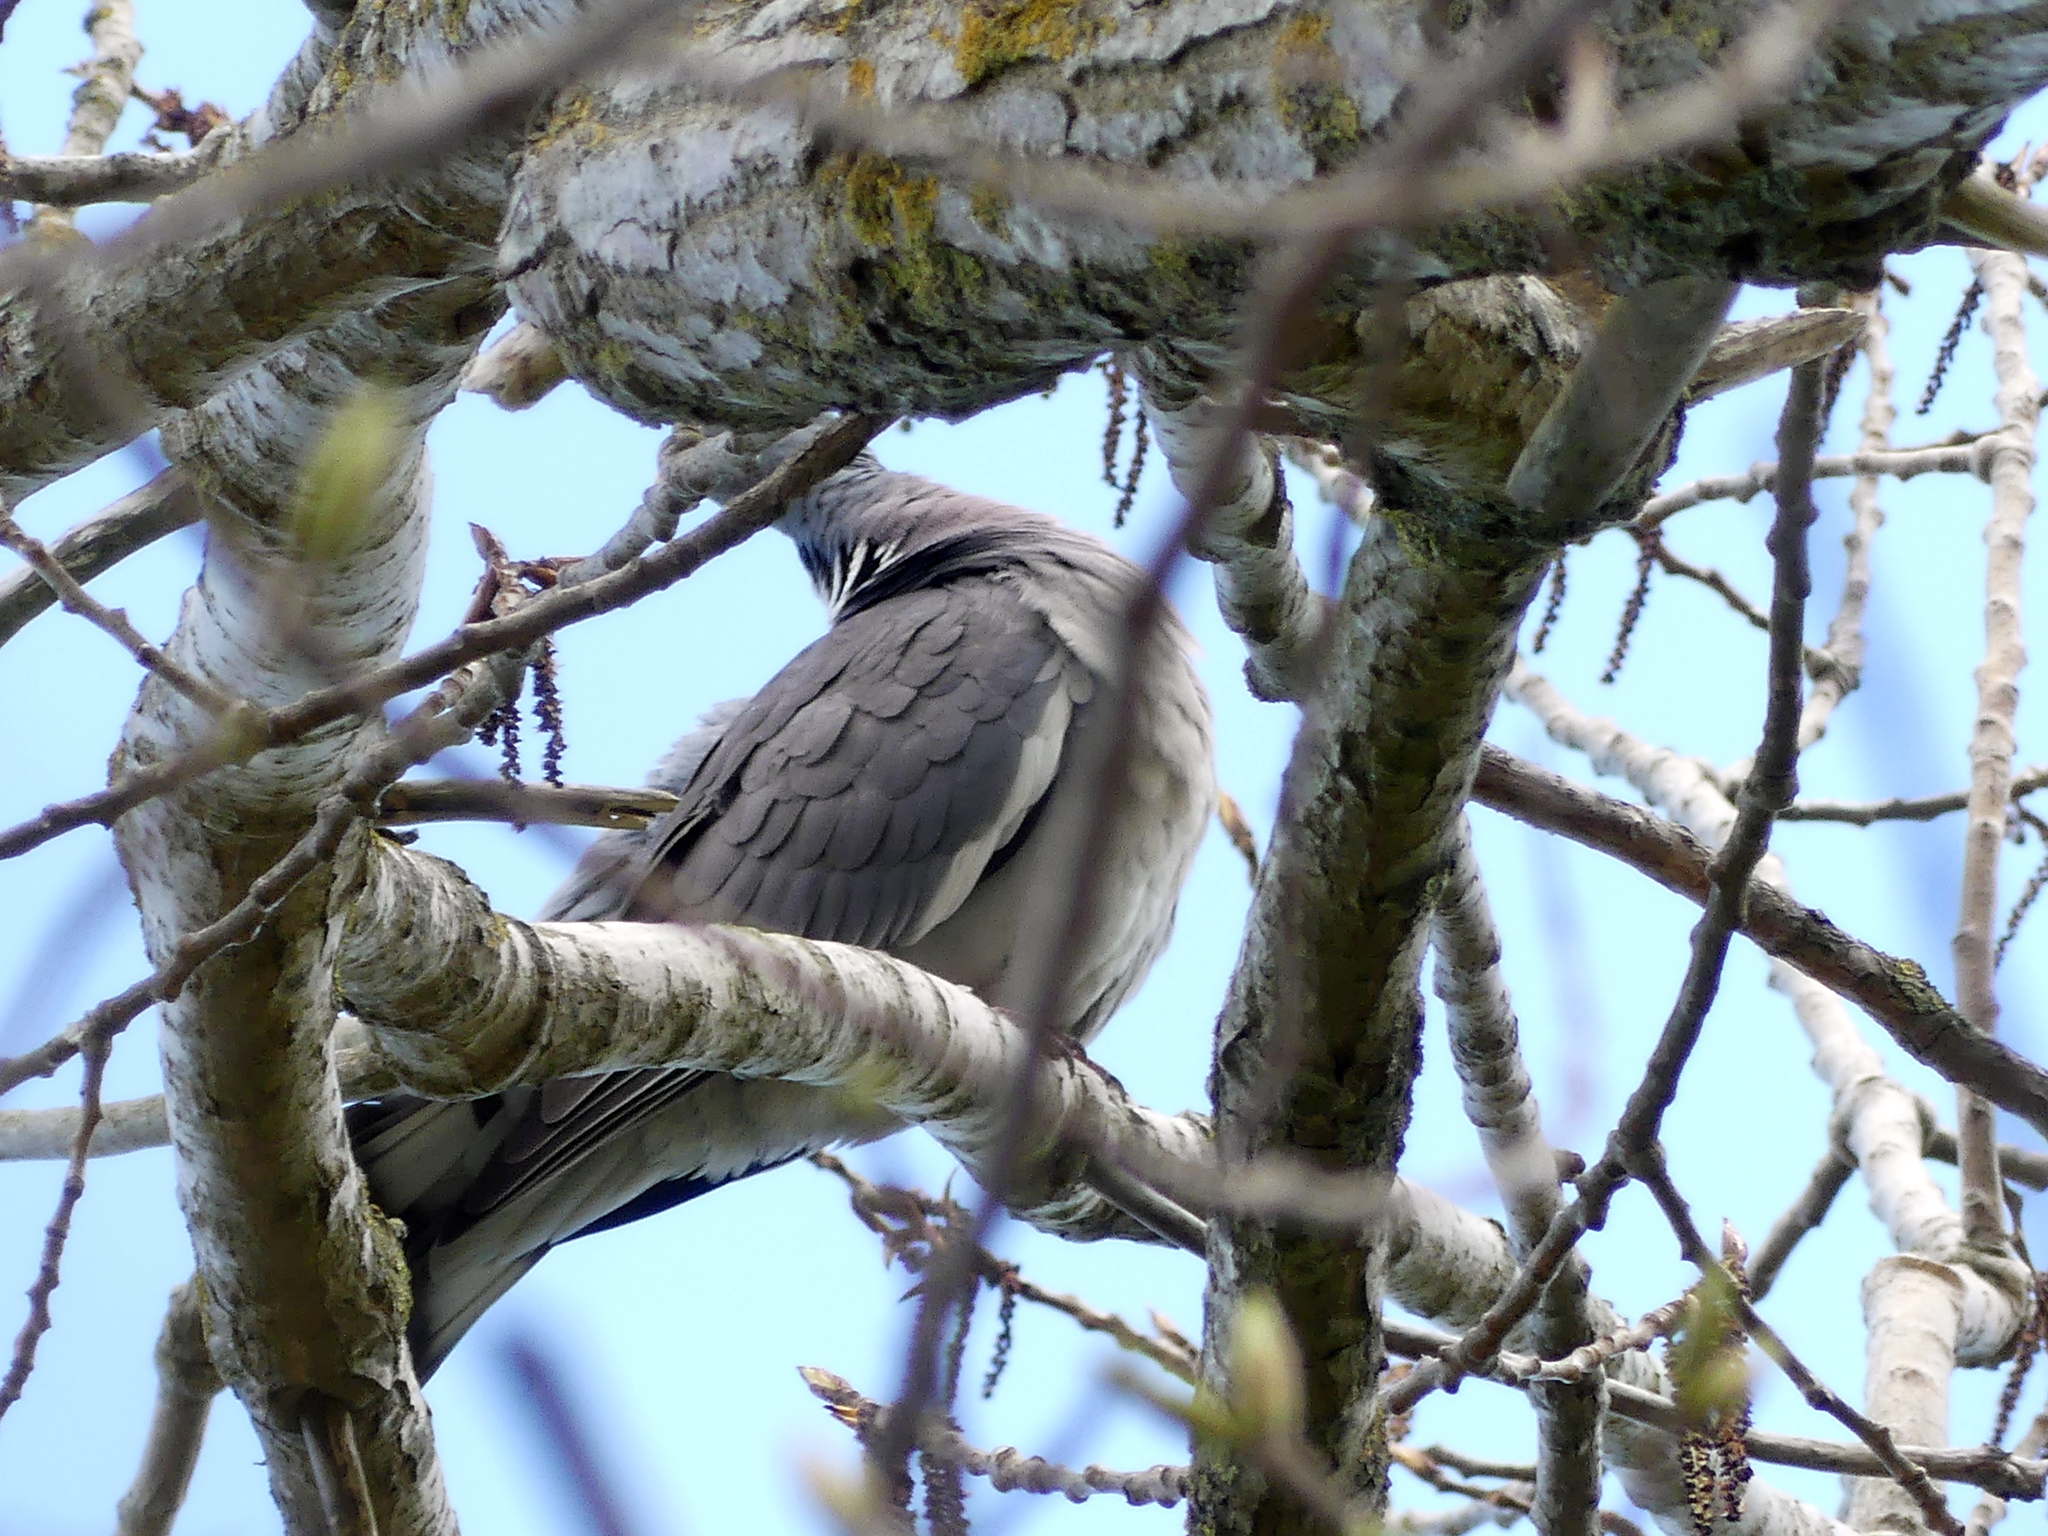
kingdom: Animalia
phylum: Chordata
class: Aves
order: Columbiformes
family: Columbidae
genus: Columba
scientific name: Columba palumbus
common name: Common wood pigeon
